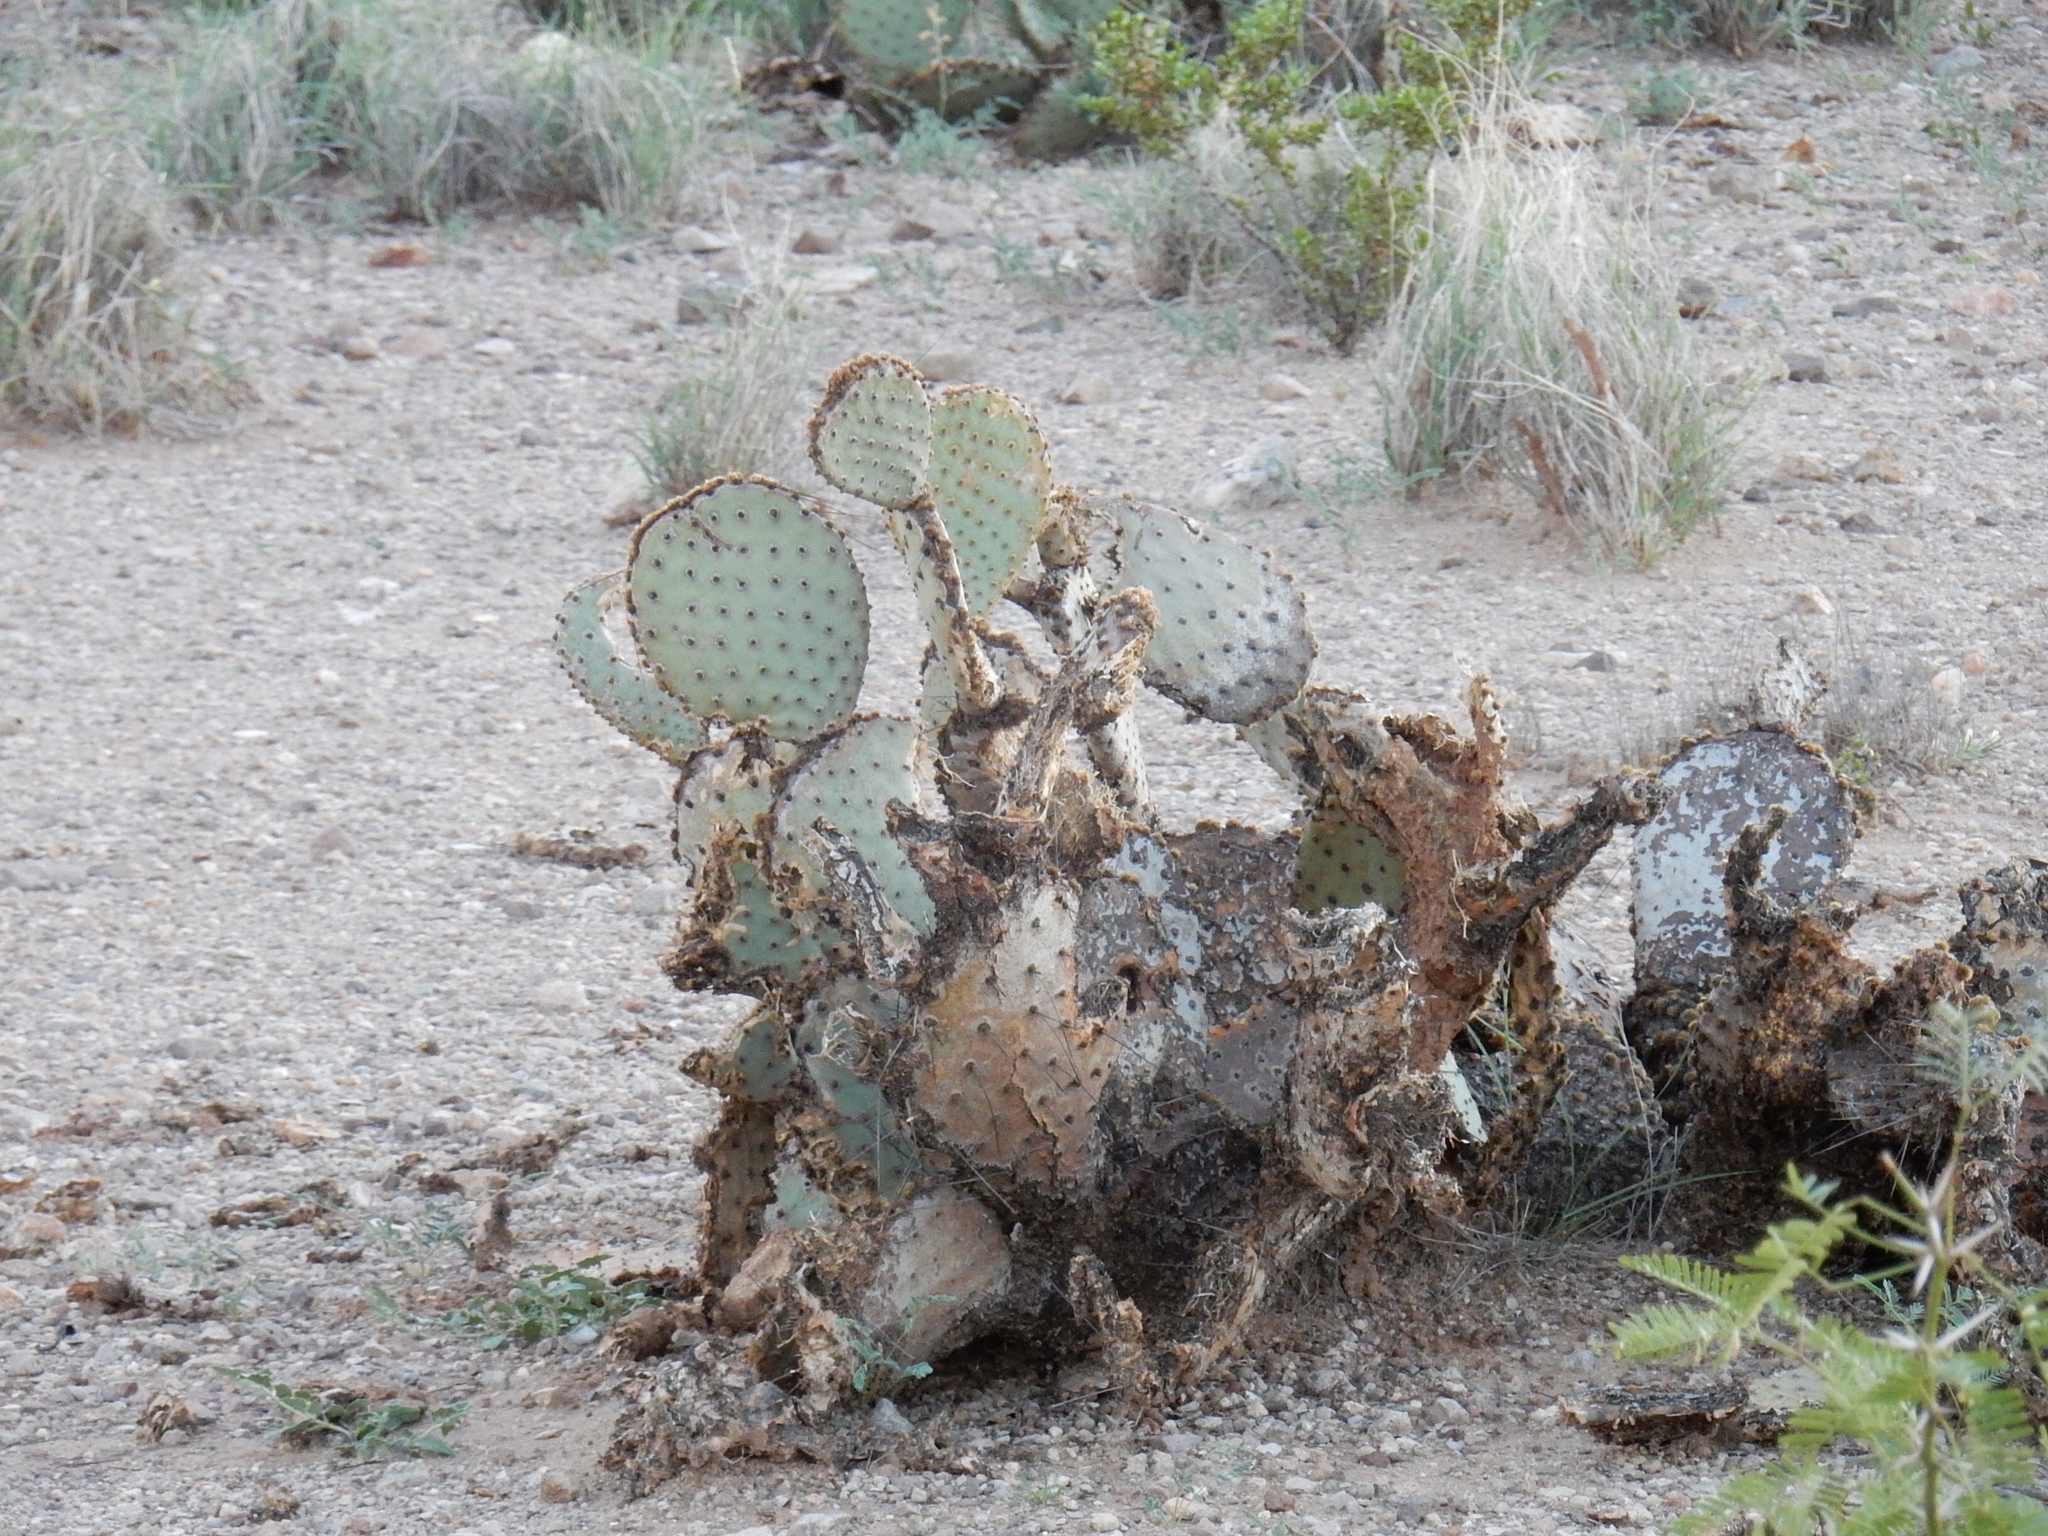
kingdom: Plantae
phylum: Tracheophyta
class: Magnoliopsida
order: Caryophyllales
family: Cactaceae
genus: Opuntia
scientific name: Opuntia macrocentra
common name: Purple prickly-pear
